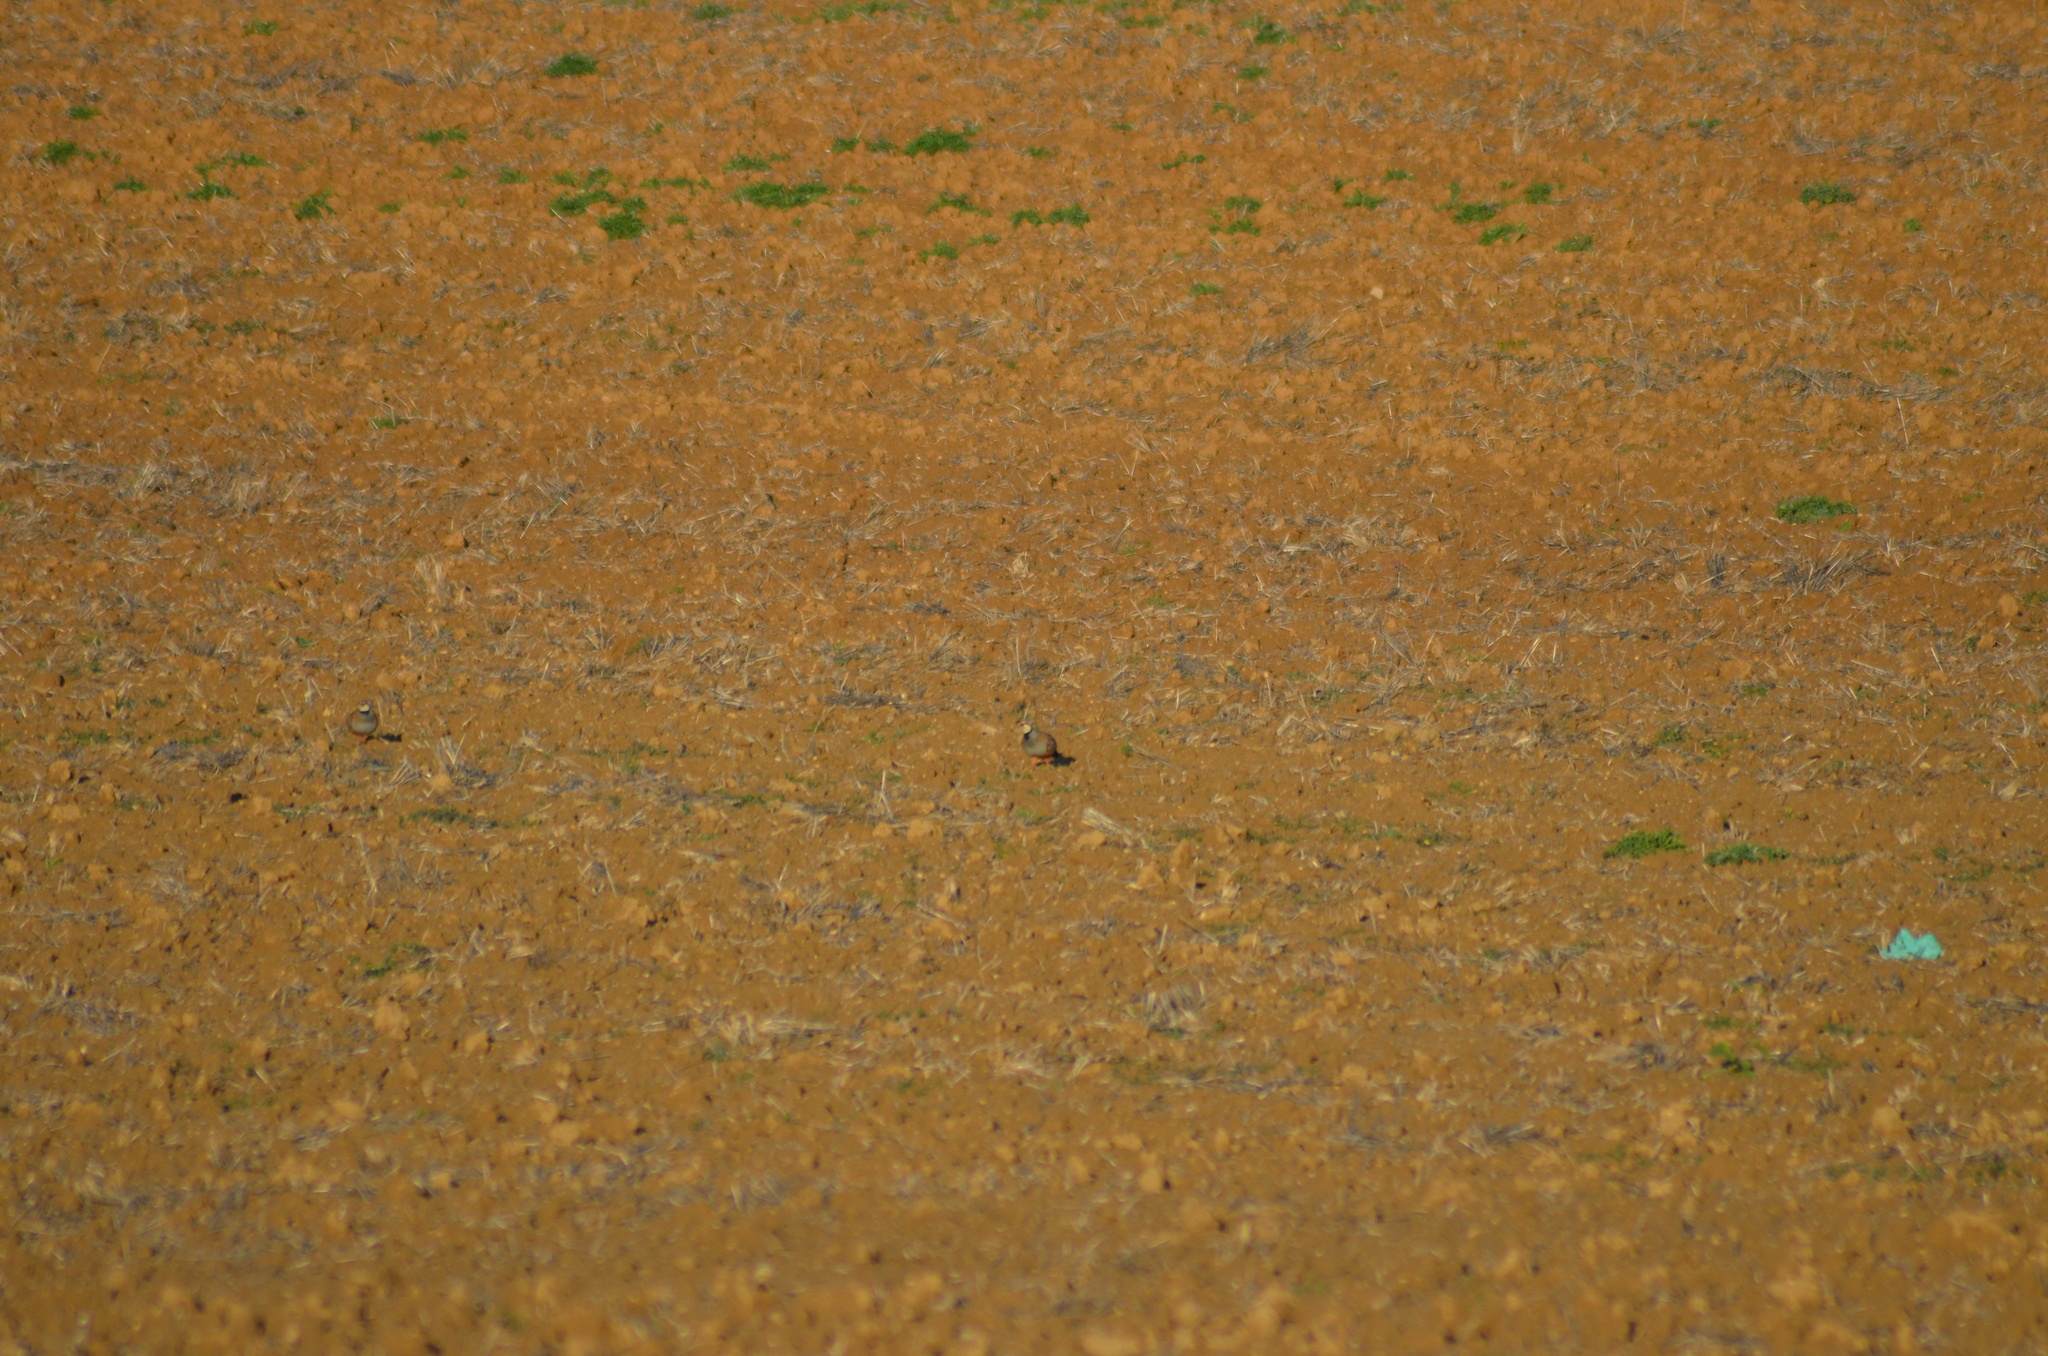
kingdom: Animalia
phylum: Chordata
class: Aves
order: Galliformes
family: Phasianidae
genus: Alectoris
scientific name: Alectoris rufa
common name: Red-legged partridge
